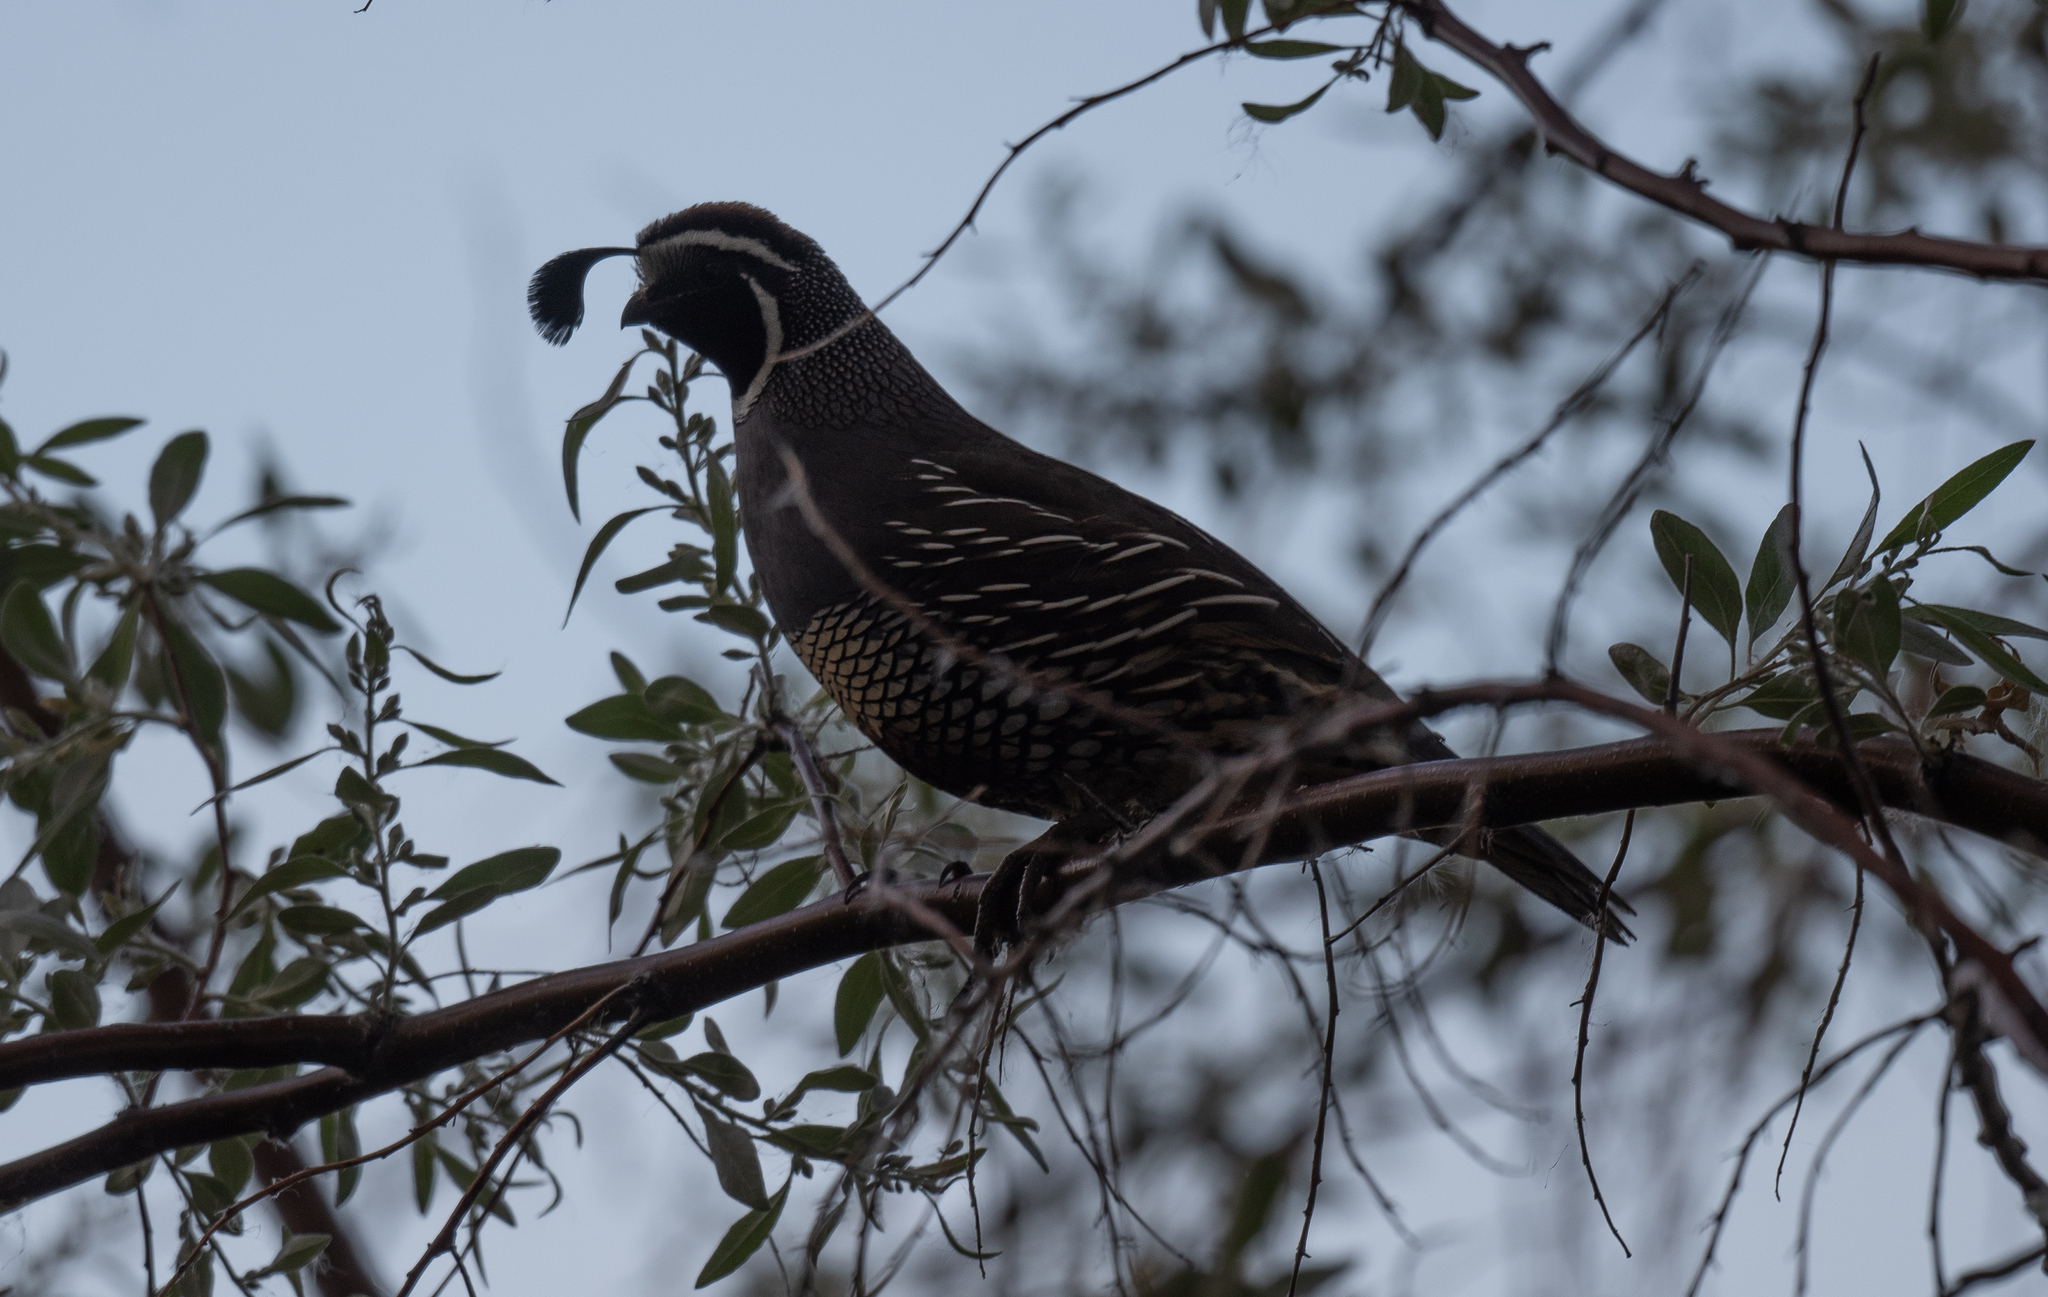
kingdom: Animalia
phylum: Chordata
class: Aves
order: Galliformes
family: Odontophoridae
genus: Callipepla
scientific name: Callipepla californica
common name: California quail
